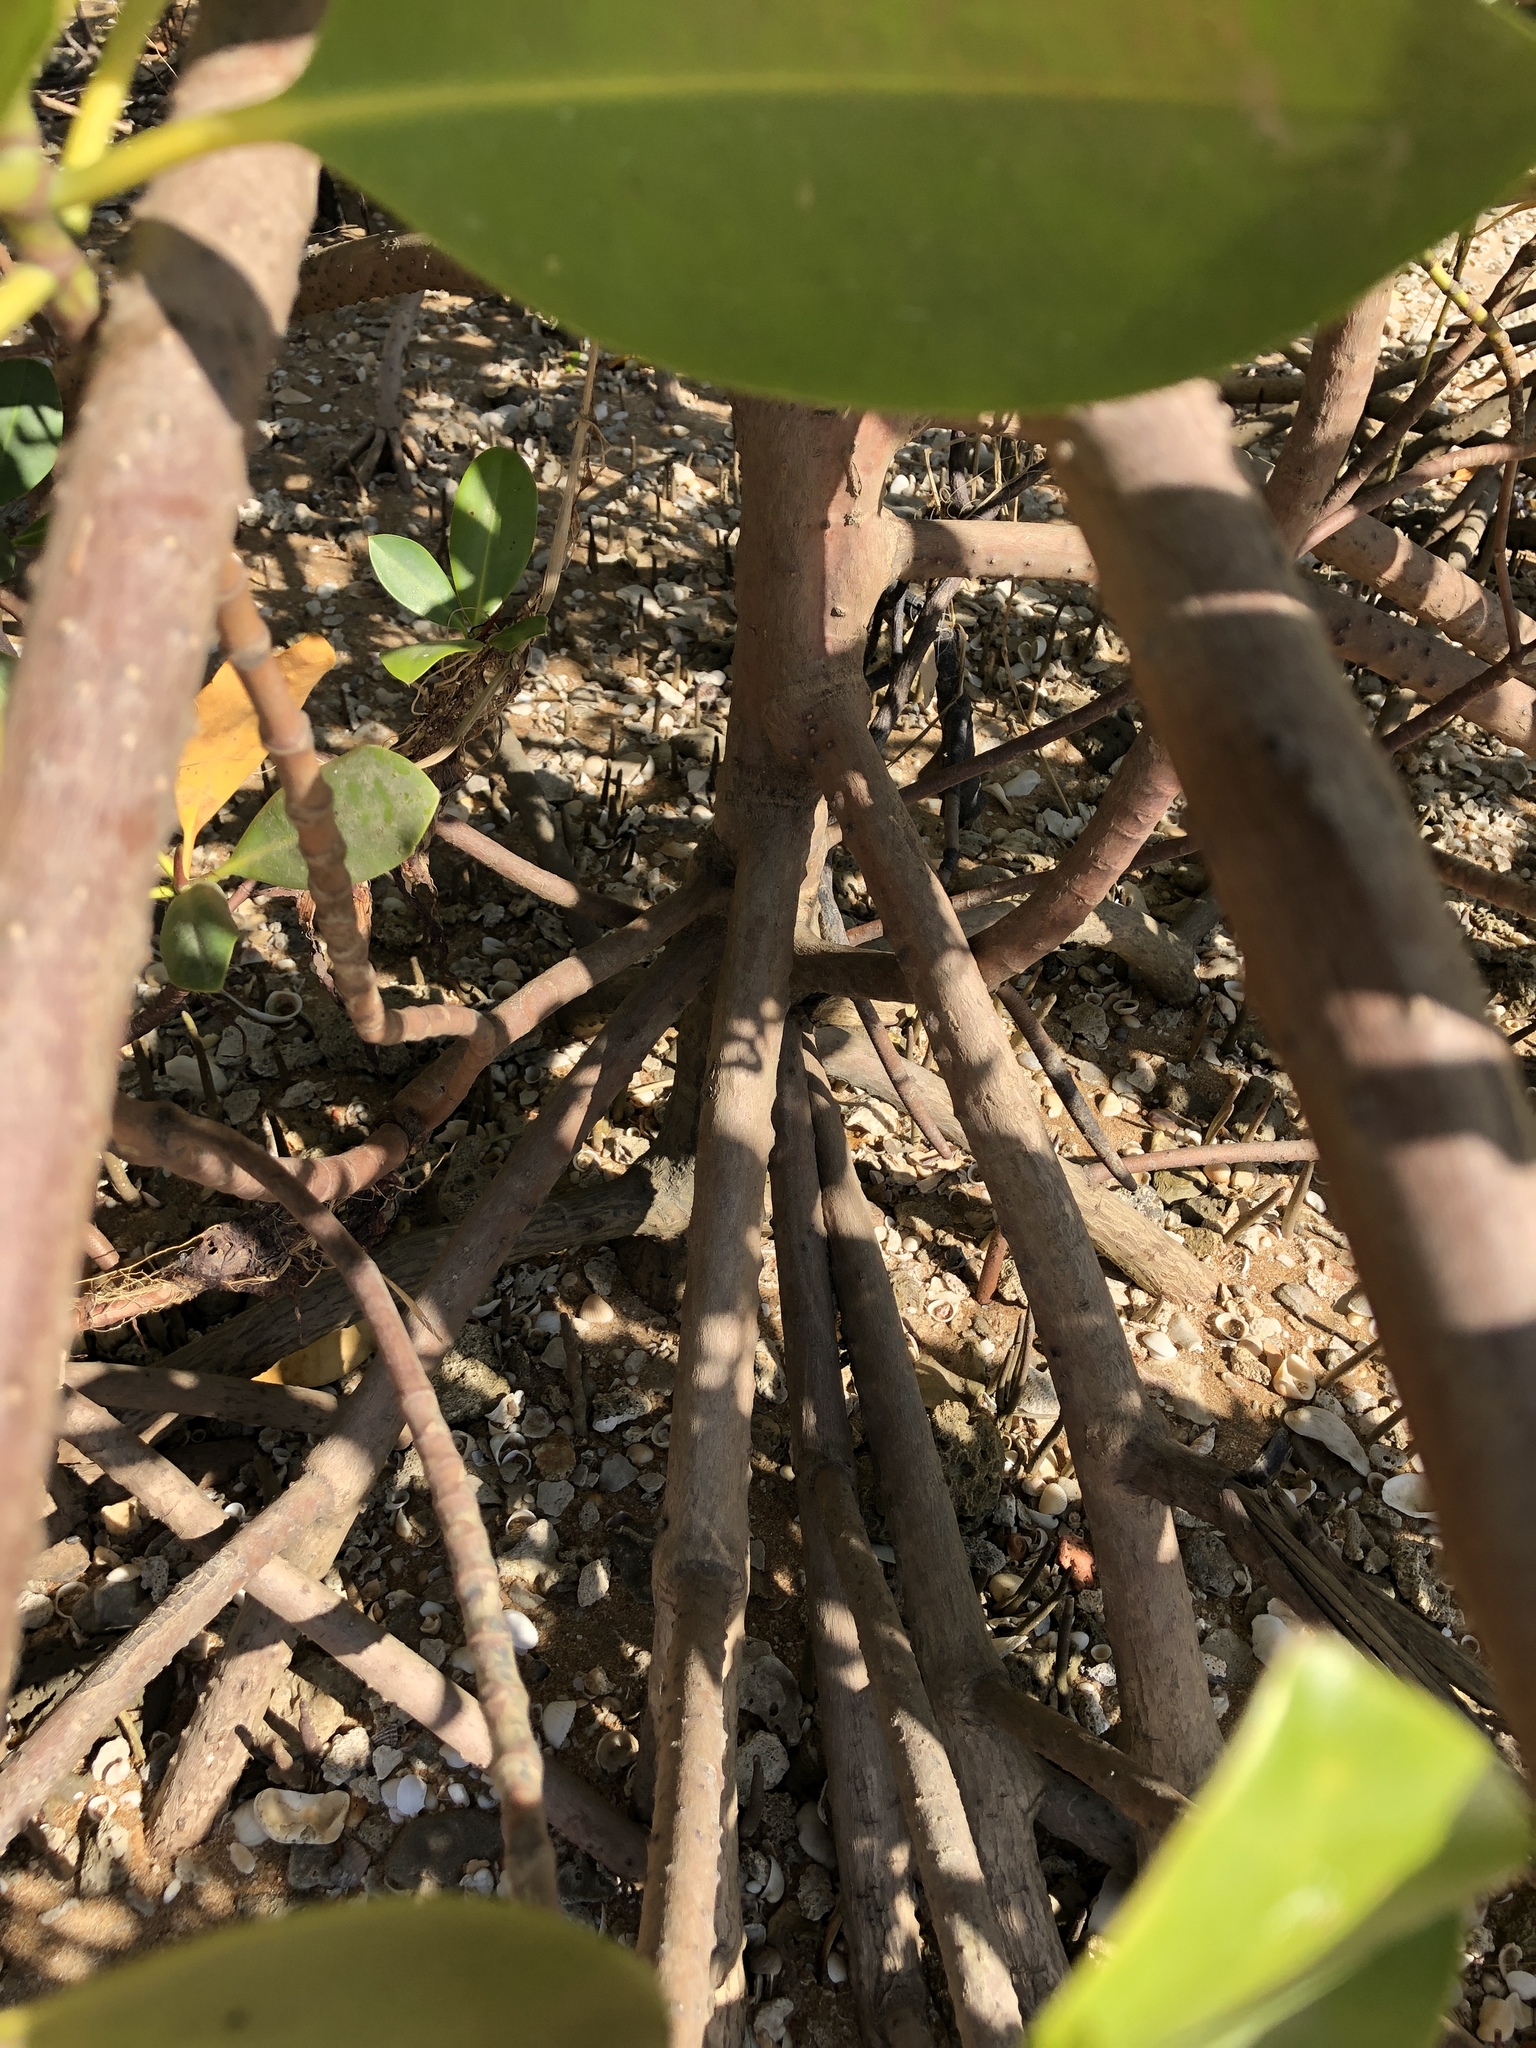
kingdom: Plantae
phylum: Tracheophyta
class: Magnoliopsida
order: Malpighiales
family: Rhizophoraceae
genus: Rhizophora
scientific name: Rhizophora stylosa
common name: Red mangrove
